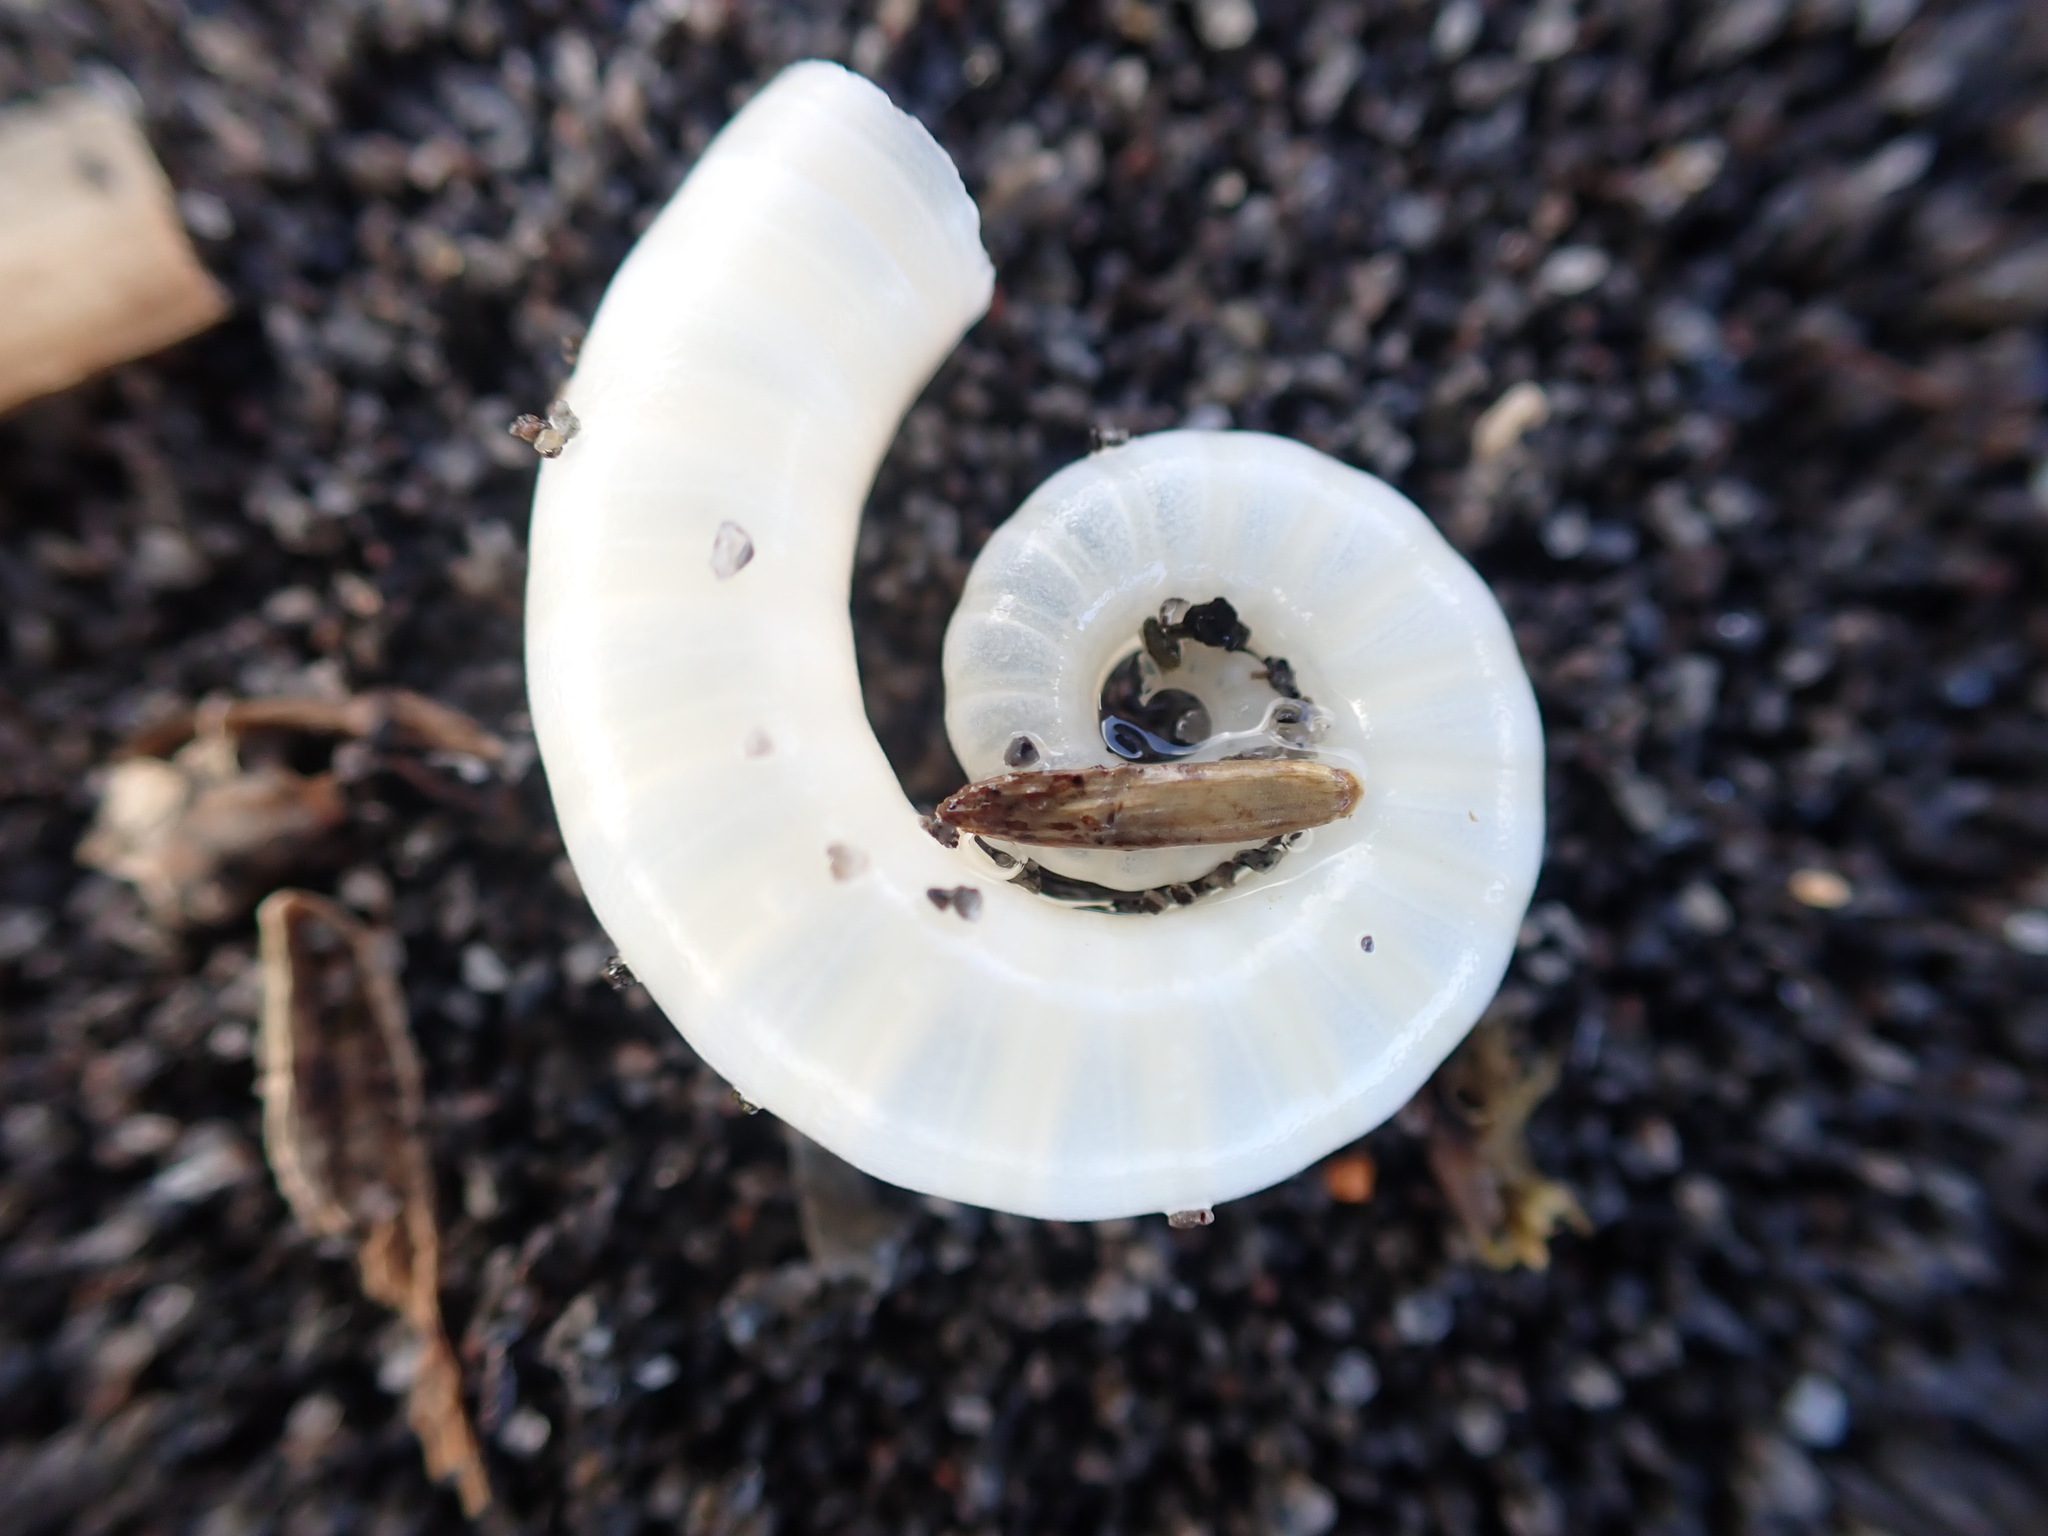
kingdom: Animalia
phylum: Mollusca
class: Cephalopoda
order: Spirulida
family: Spirulidae
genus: Spirula
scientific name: Spirula spirula
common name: Ram's horn squid
